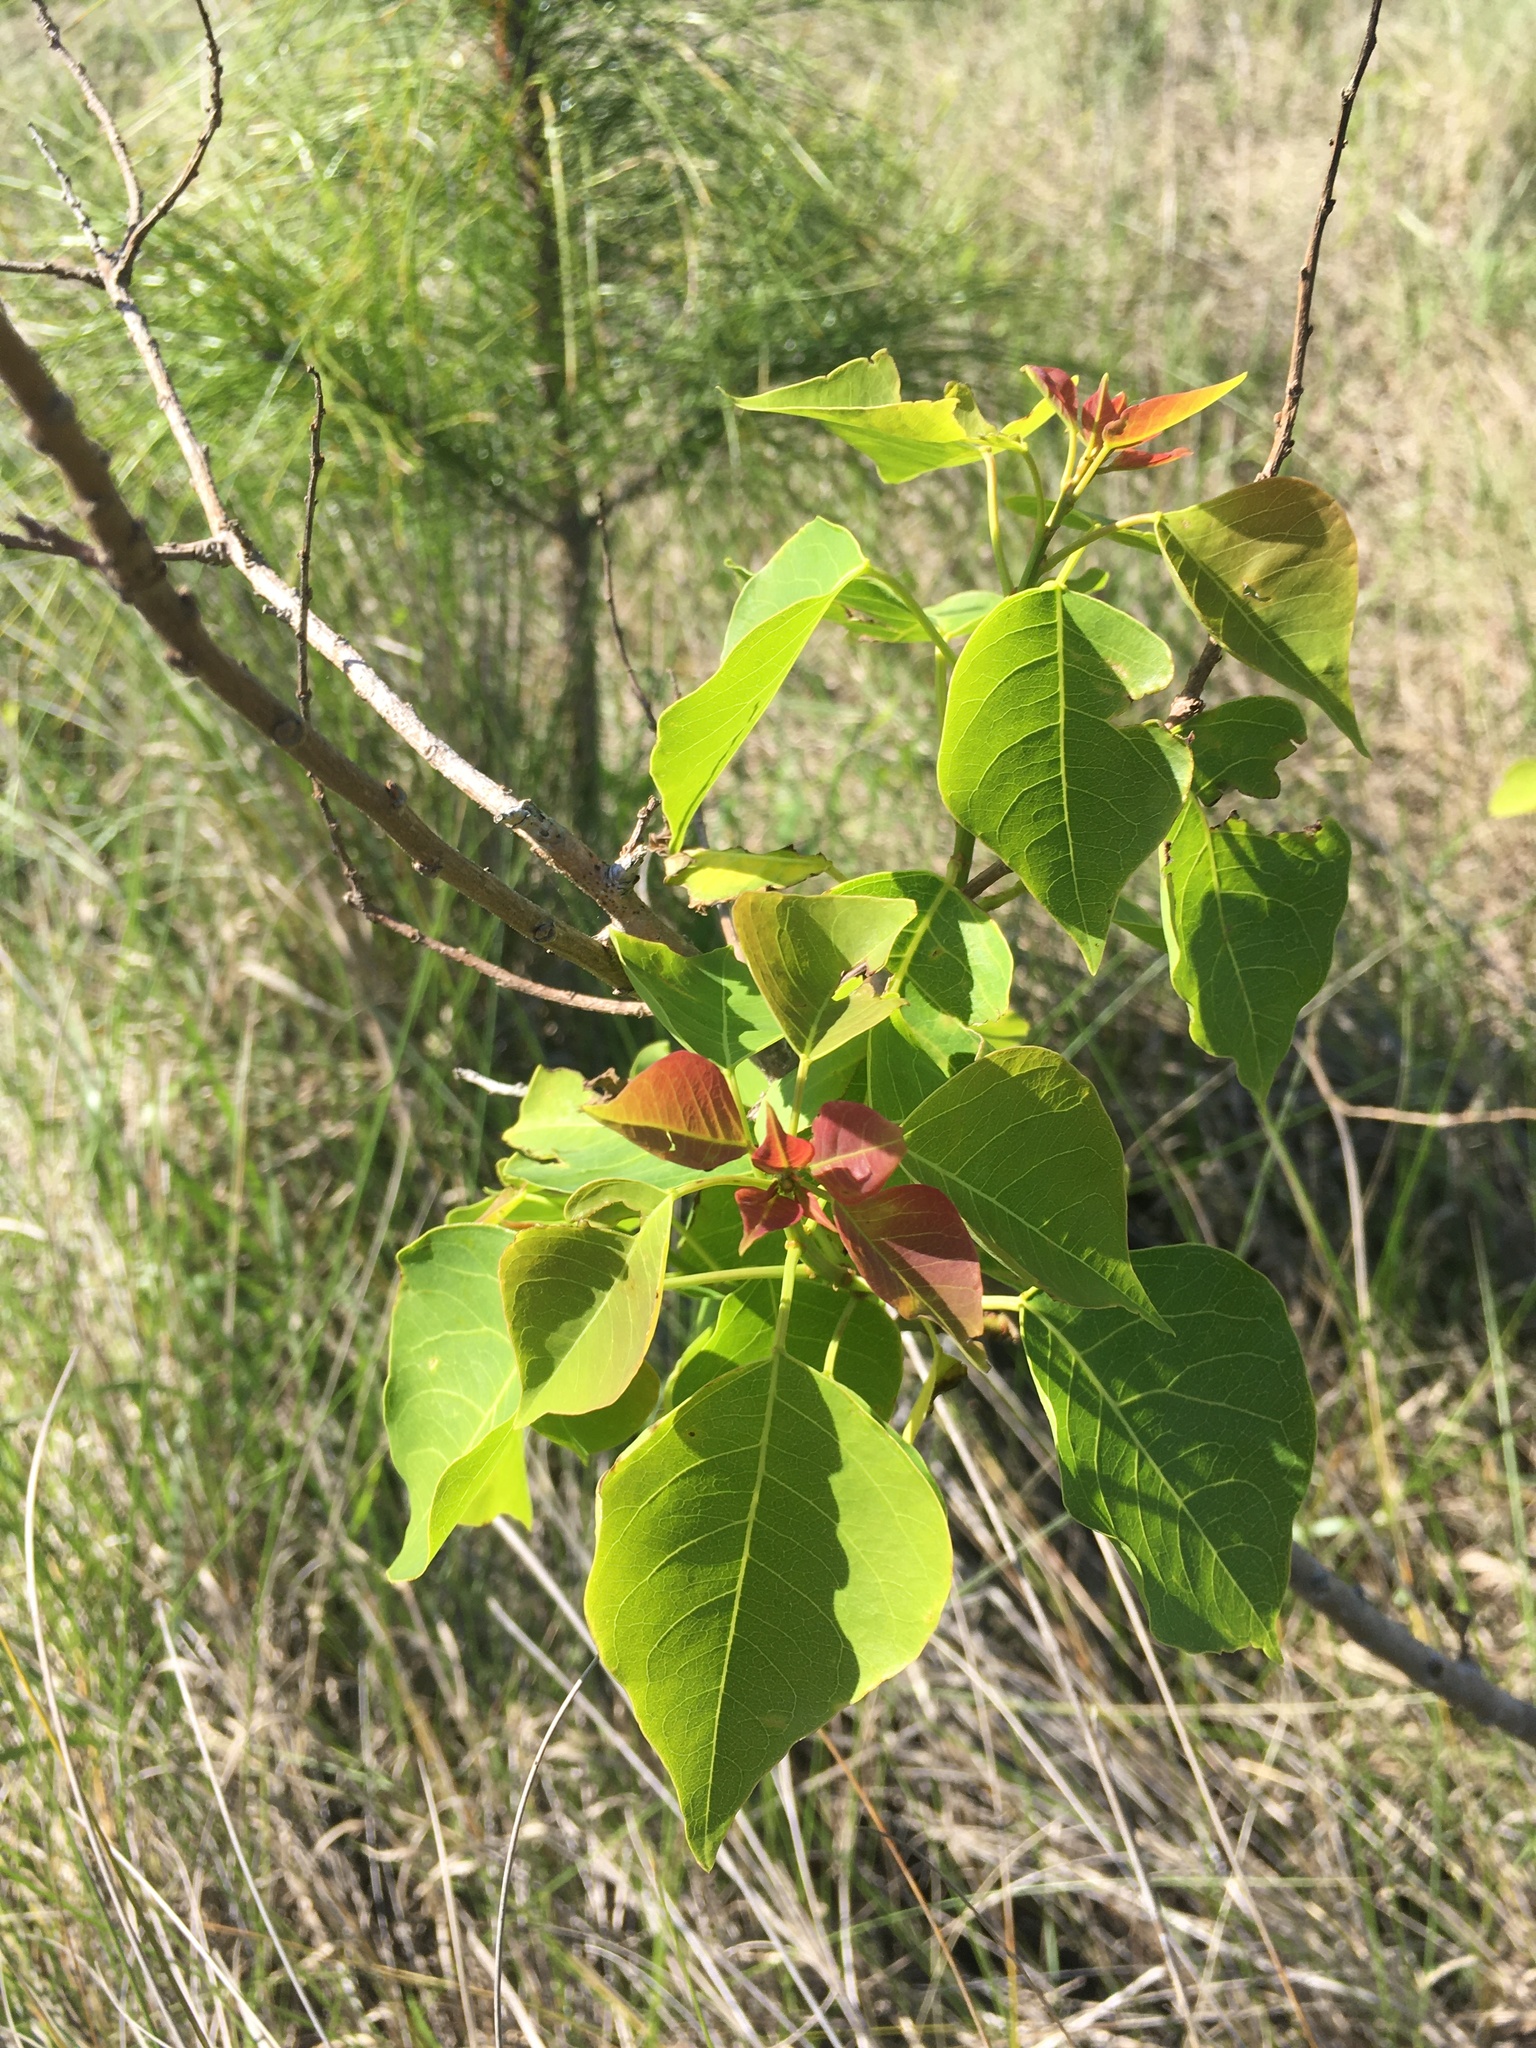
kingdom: Plantae
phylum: Tracheophyta
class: Magnoliopsida
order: Malpighiales
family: Euphorbiaceae
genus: Triadica
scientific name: Triadica sebifera
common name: Chinese tallow
